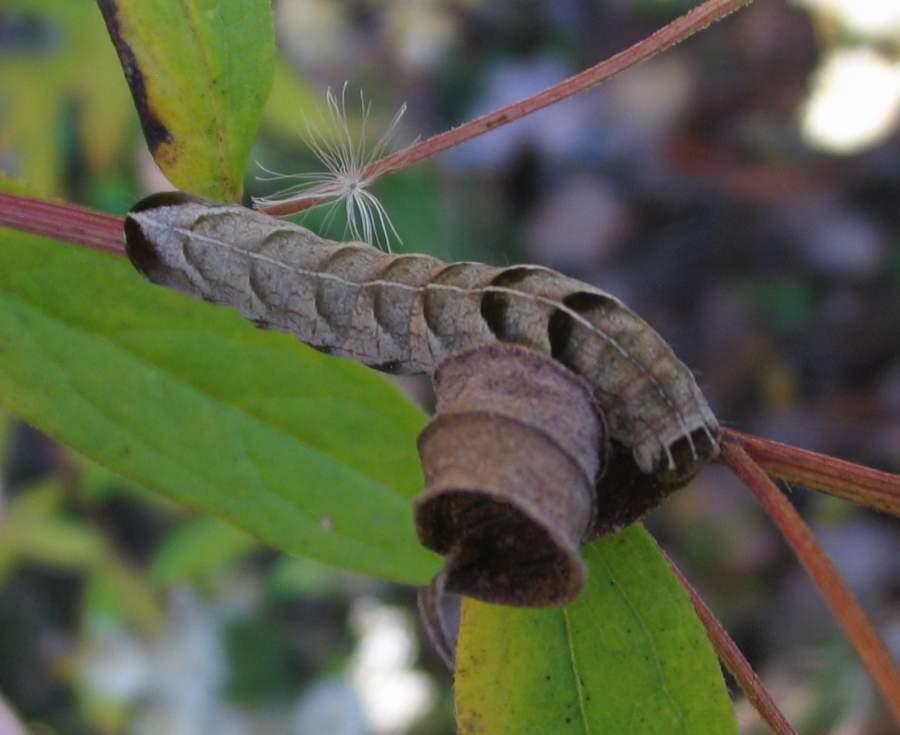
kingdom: Animalia
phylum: Arthropoda
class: Insecta
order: Lepidoptera
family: Noctuidae
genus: Melanchra
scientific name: Melanchra adjuncta
